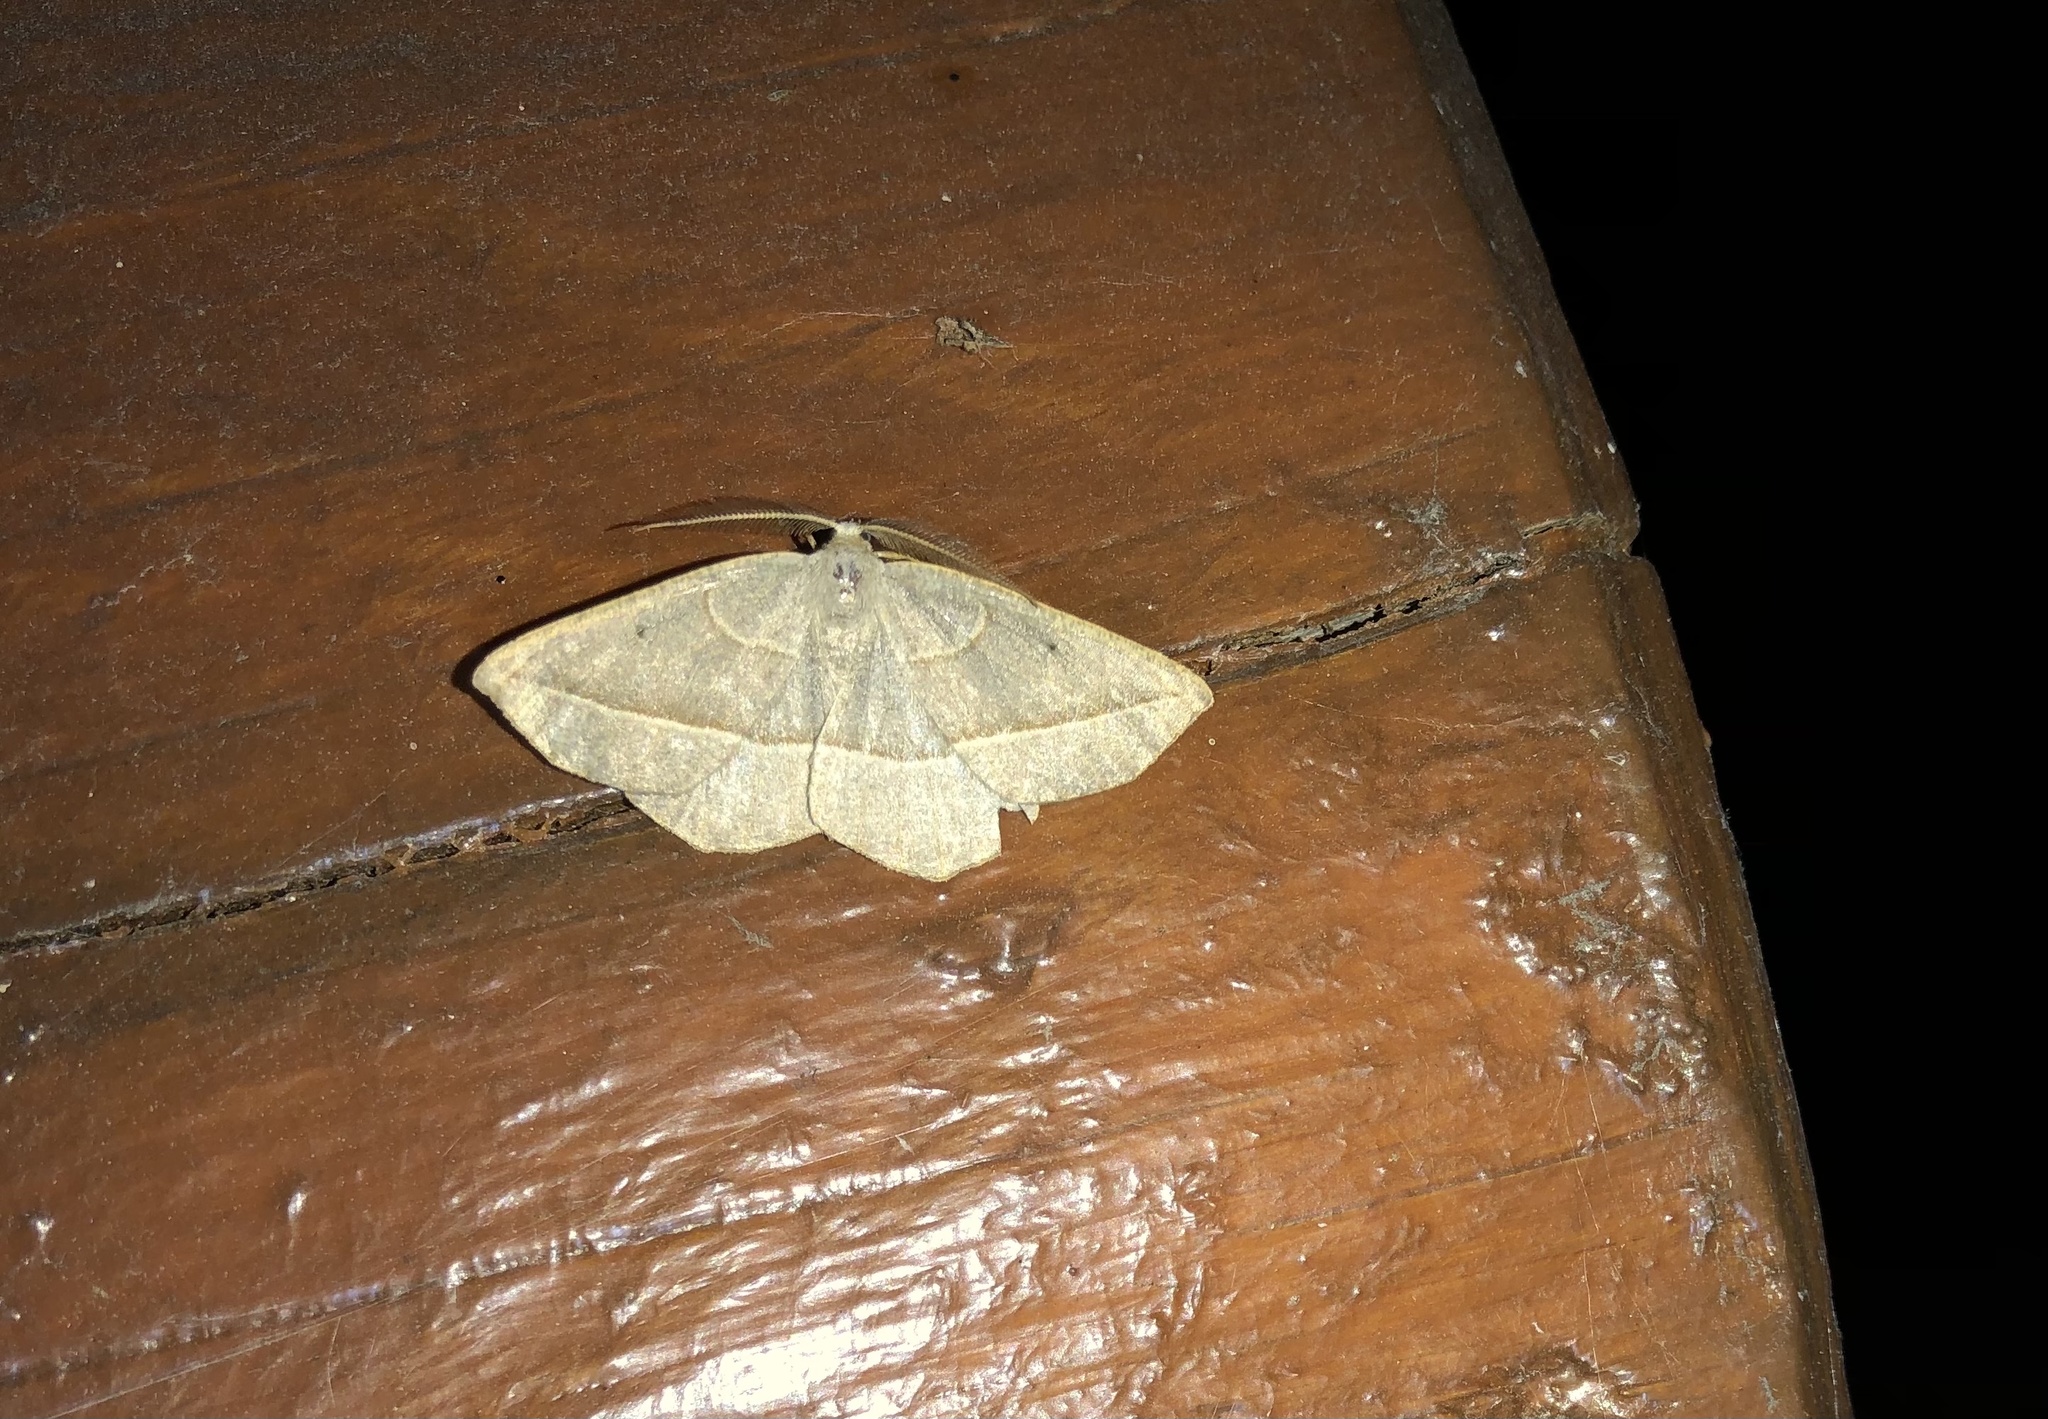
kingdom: Animalia
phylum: Arthropoda
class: Insecta
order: Lepidoptera
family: Geometridae
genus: Eusarca
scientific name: Eusarca confusaria
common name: Confused eusarca
